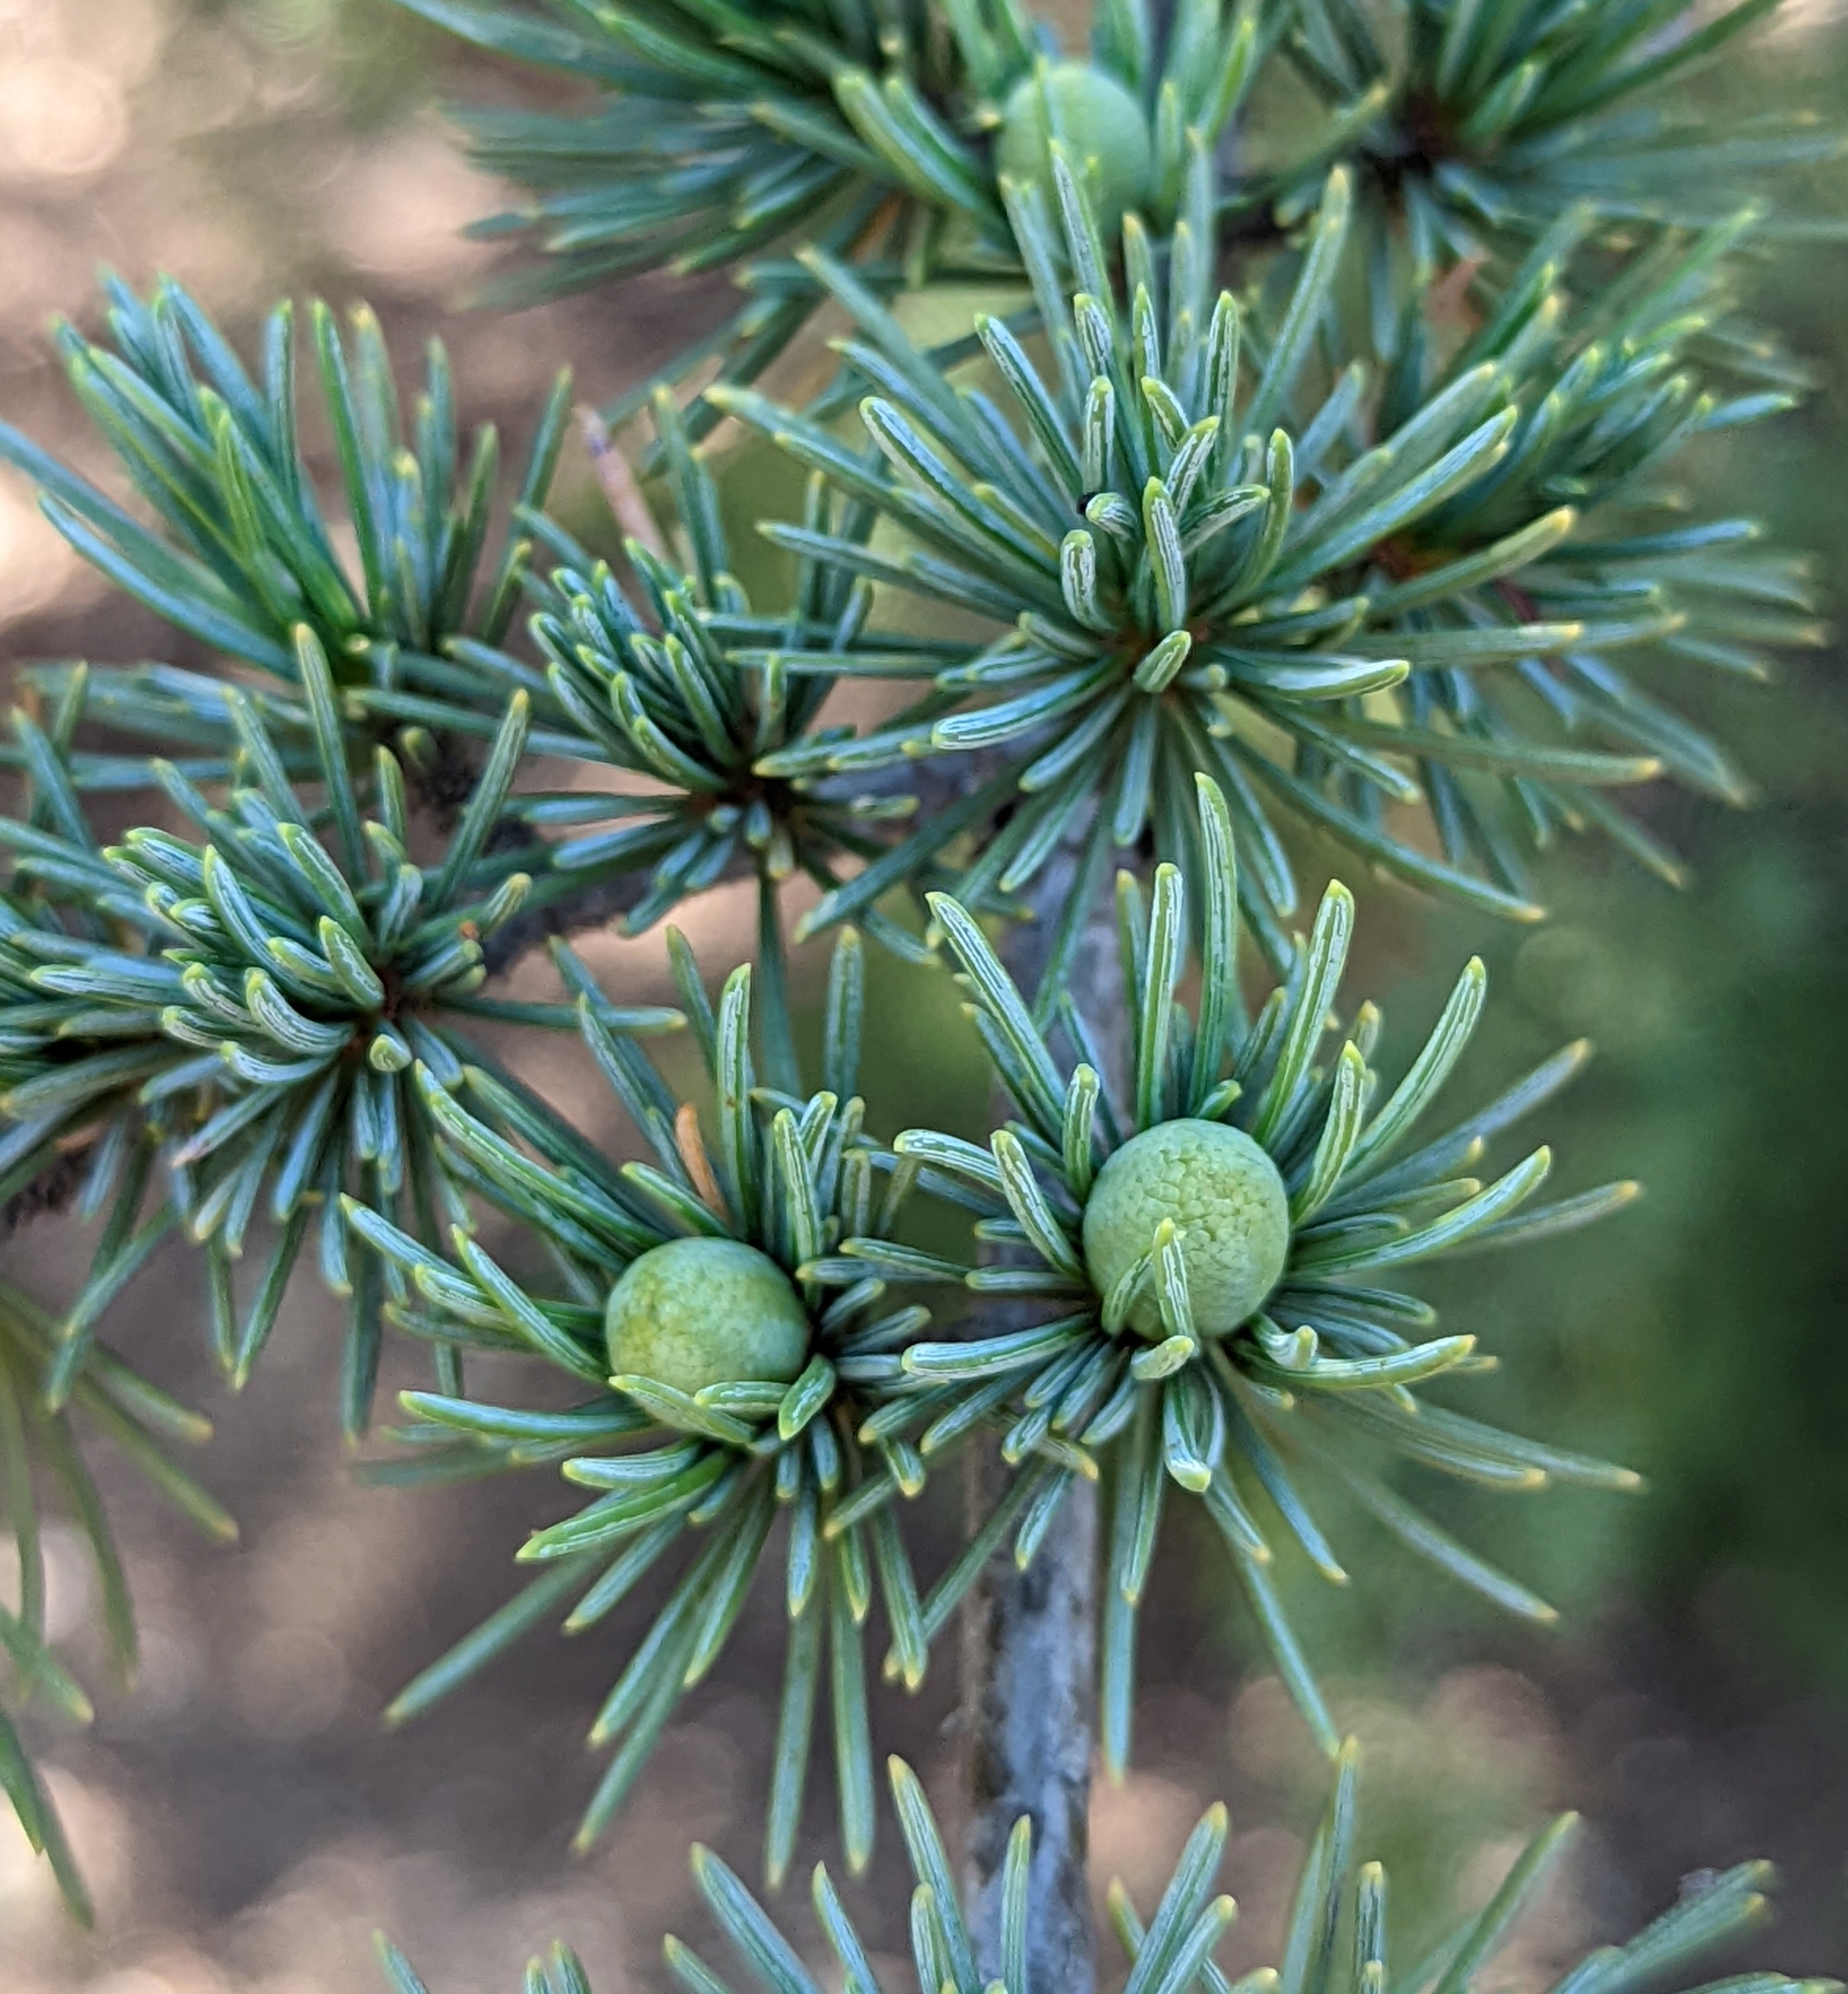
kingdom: Plantae
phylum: Tracheophyta
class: Pinopsida
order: Pinales
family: Pinaceae
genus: Cedrus
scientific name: Cedrus libani
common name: Cedar-of-lebanon
